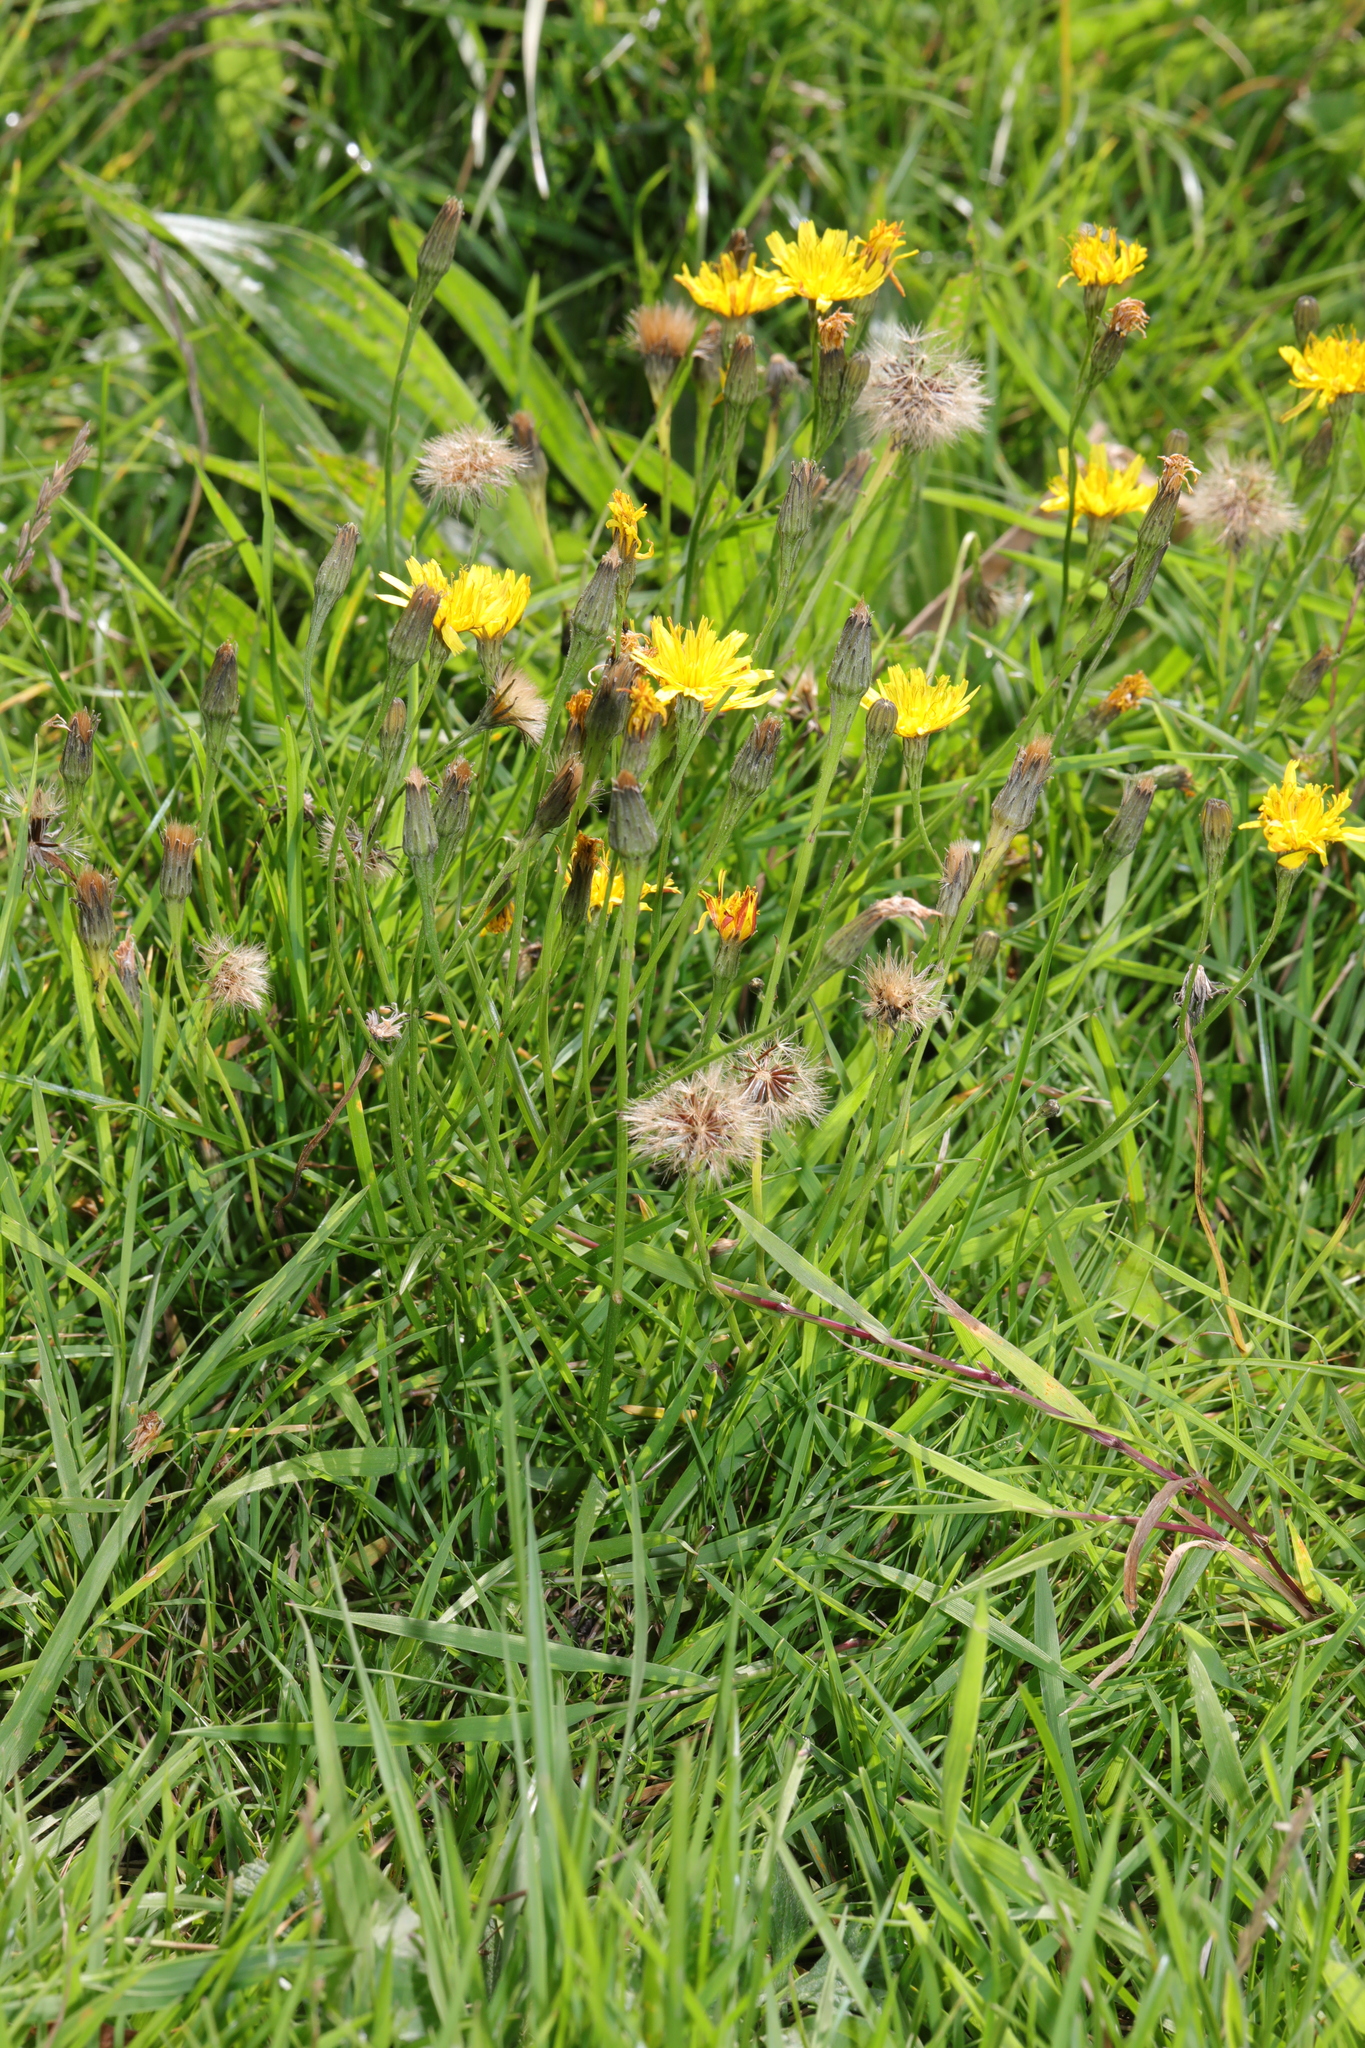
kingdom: Plantae
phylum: Tracheophyta
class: Magnoliopsida
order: Asterales
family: Asteraceae
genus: Scorzoneroides
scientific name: Scorzoneroides autumnalis
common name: Autumn hawkbit
